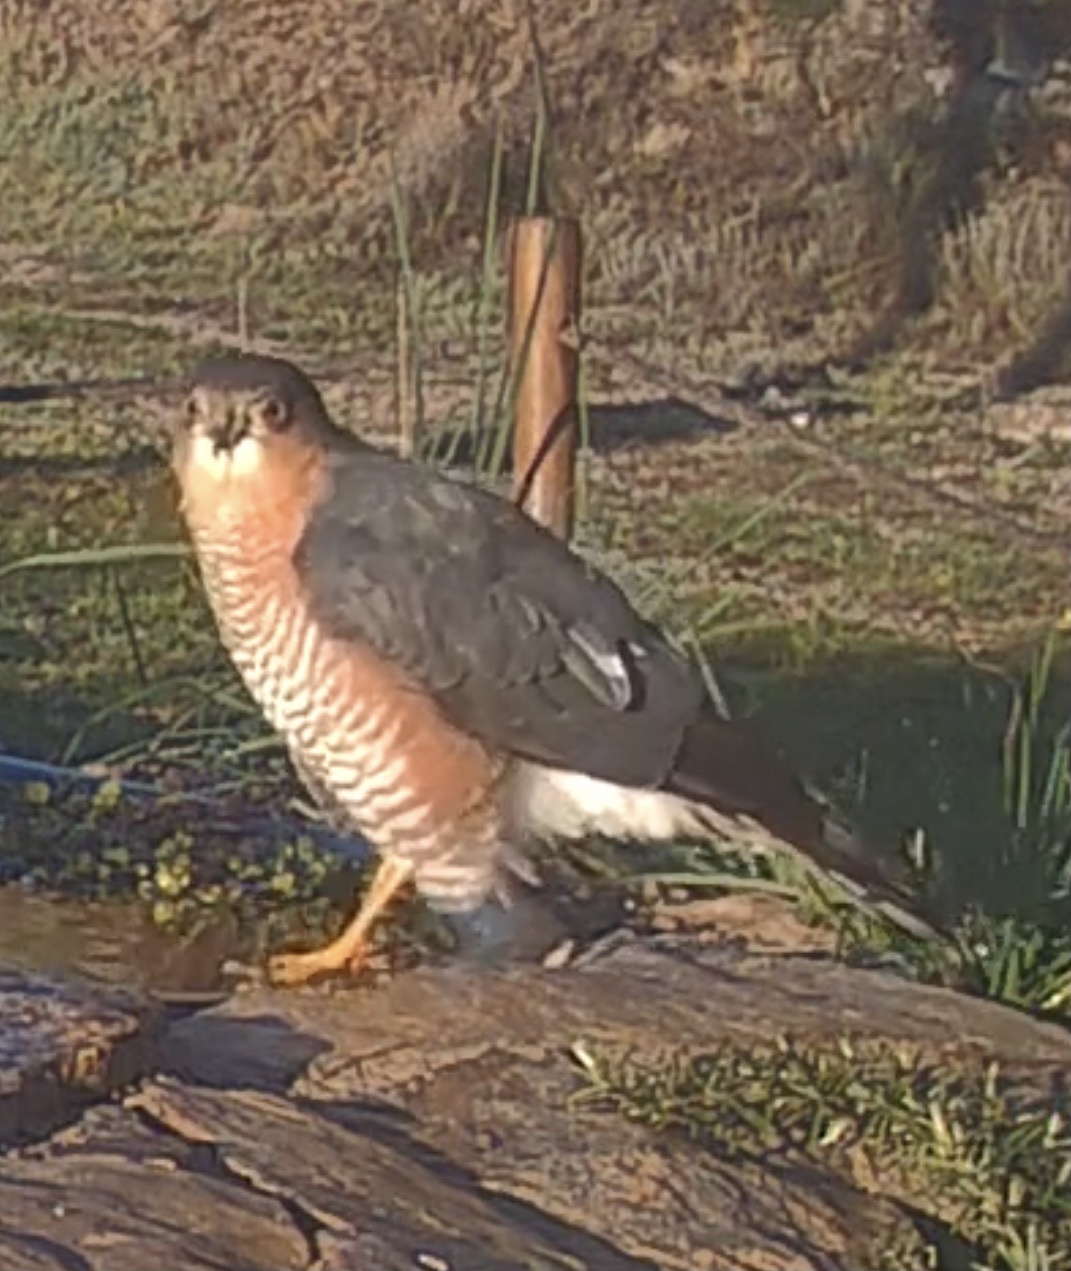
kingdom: Animalia
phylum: Chordata
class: Aves
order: Accipitriformes
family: Accipitridae
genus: Accipiter
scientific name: Accipiter nisus
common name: Eurasian sparrowhawk
